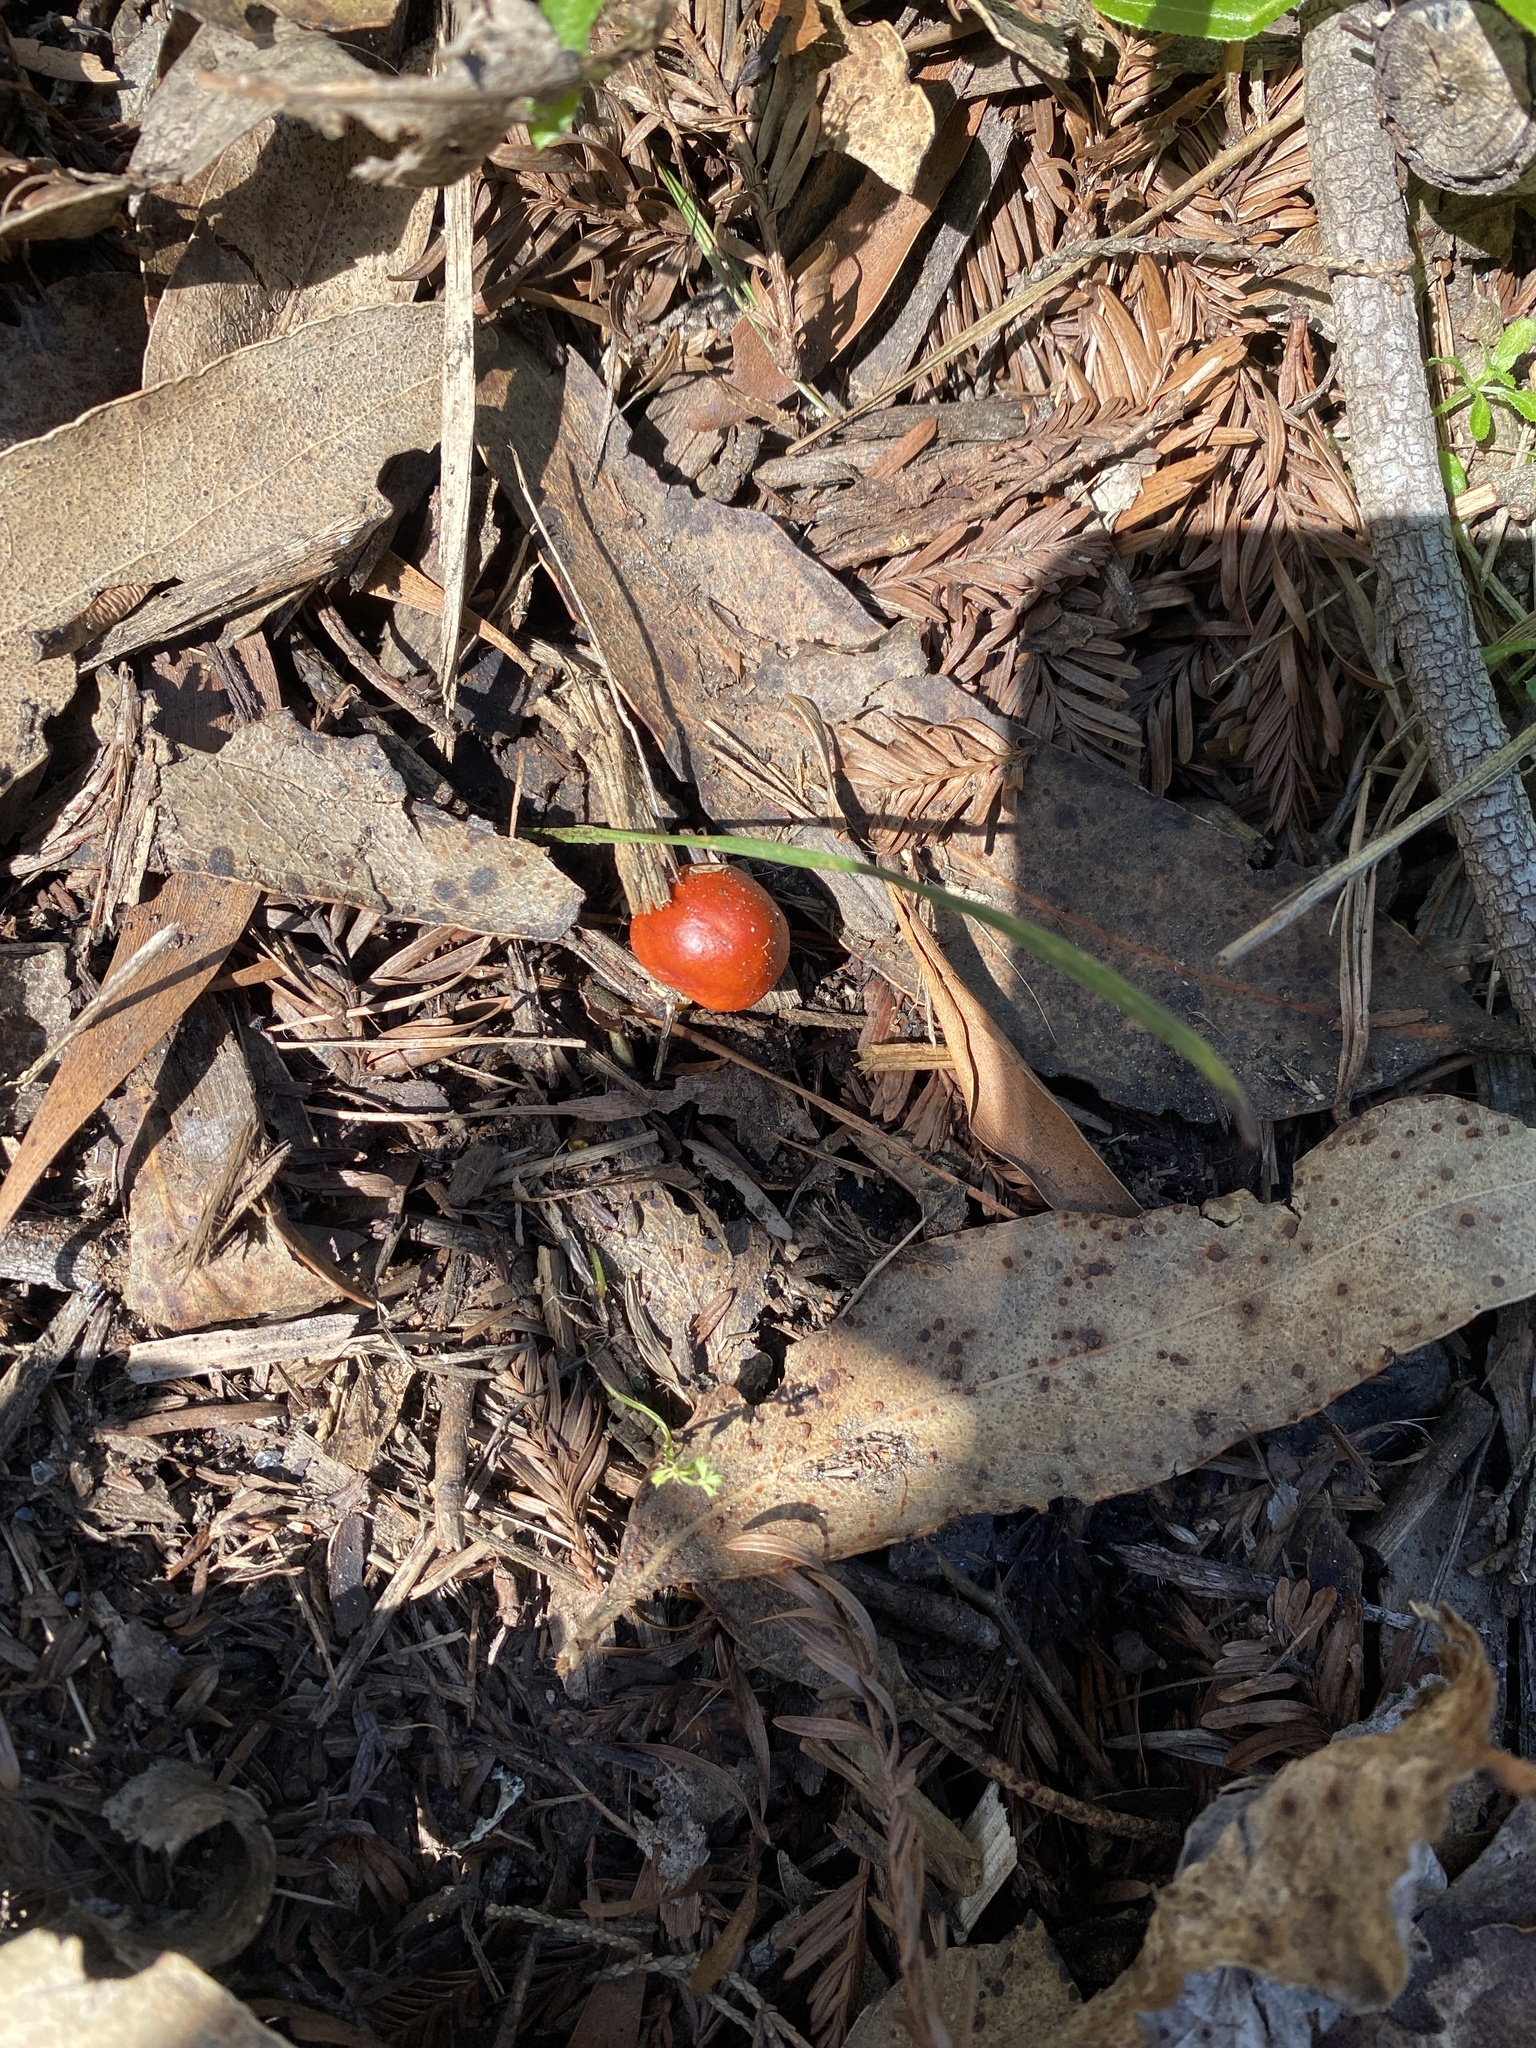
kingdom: Fungi
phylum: Basidiomycota
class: Agaricomycetes
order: Agaricales
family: Strophariaceae
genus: Leratiomyces
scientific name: Leratiomyces ceres
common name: Redlead roundhead
